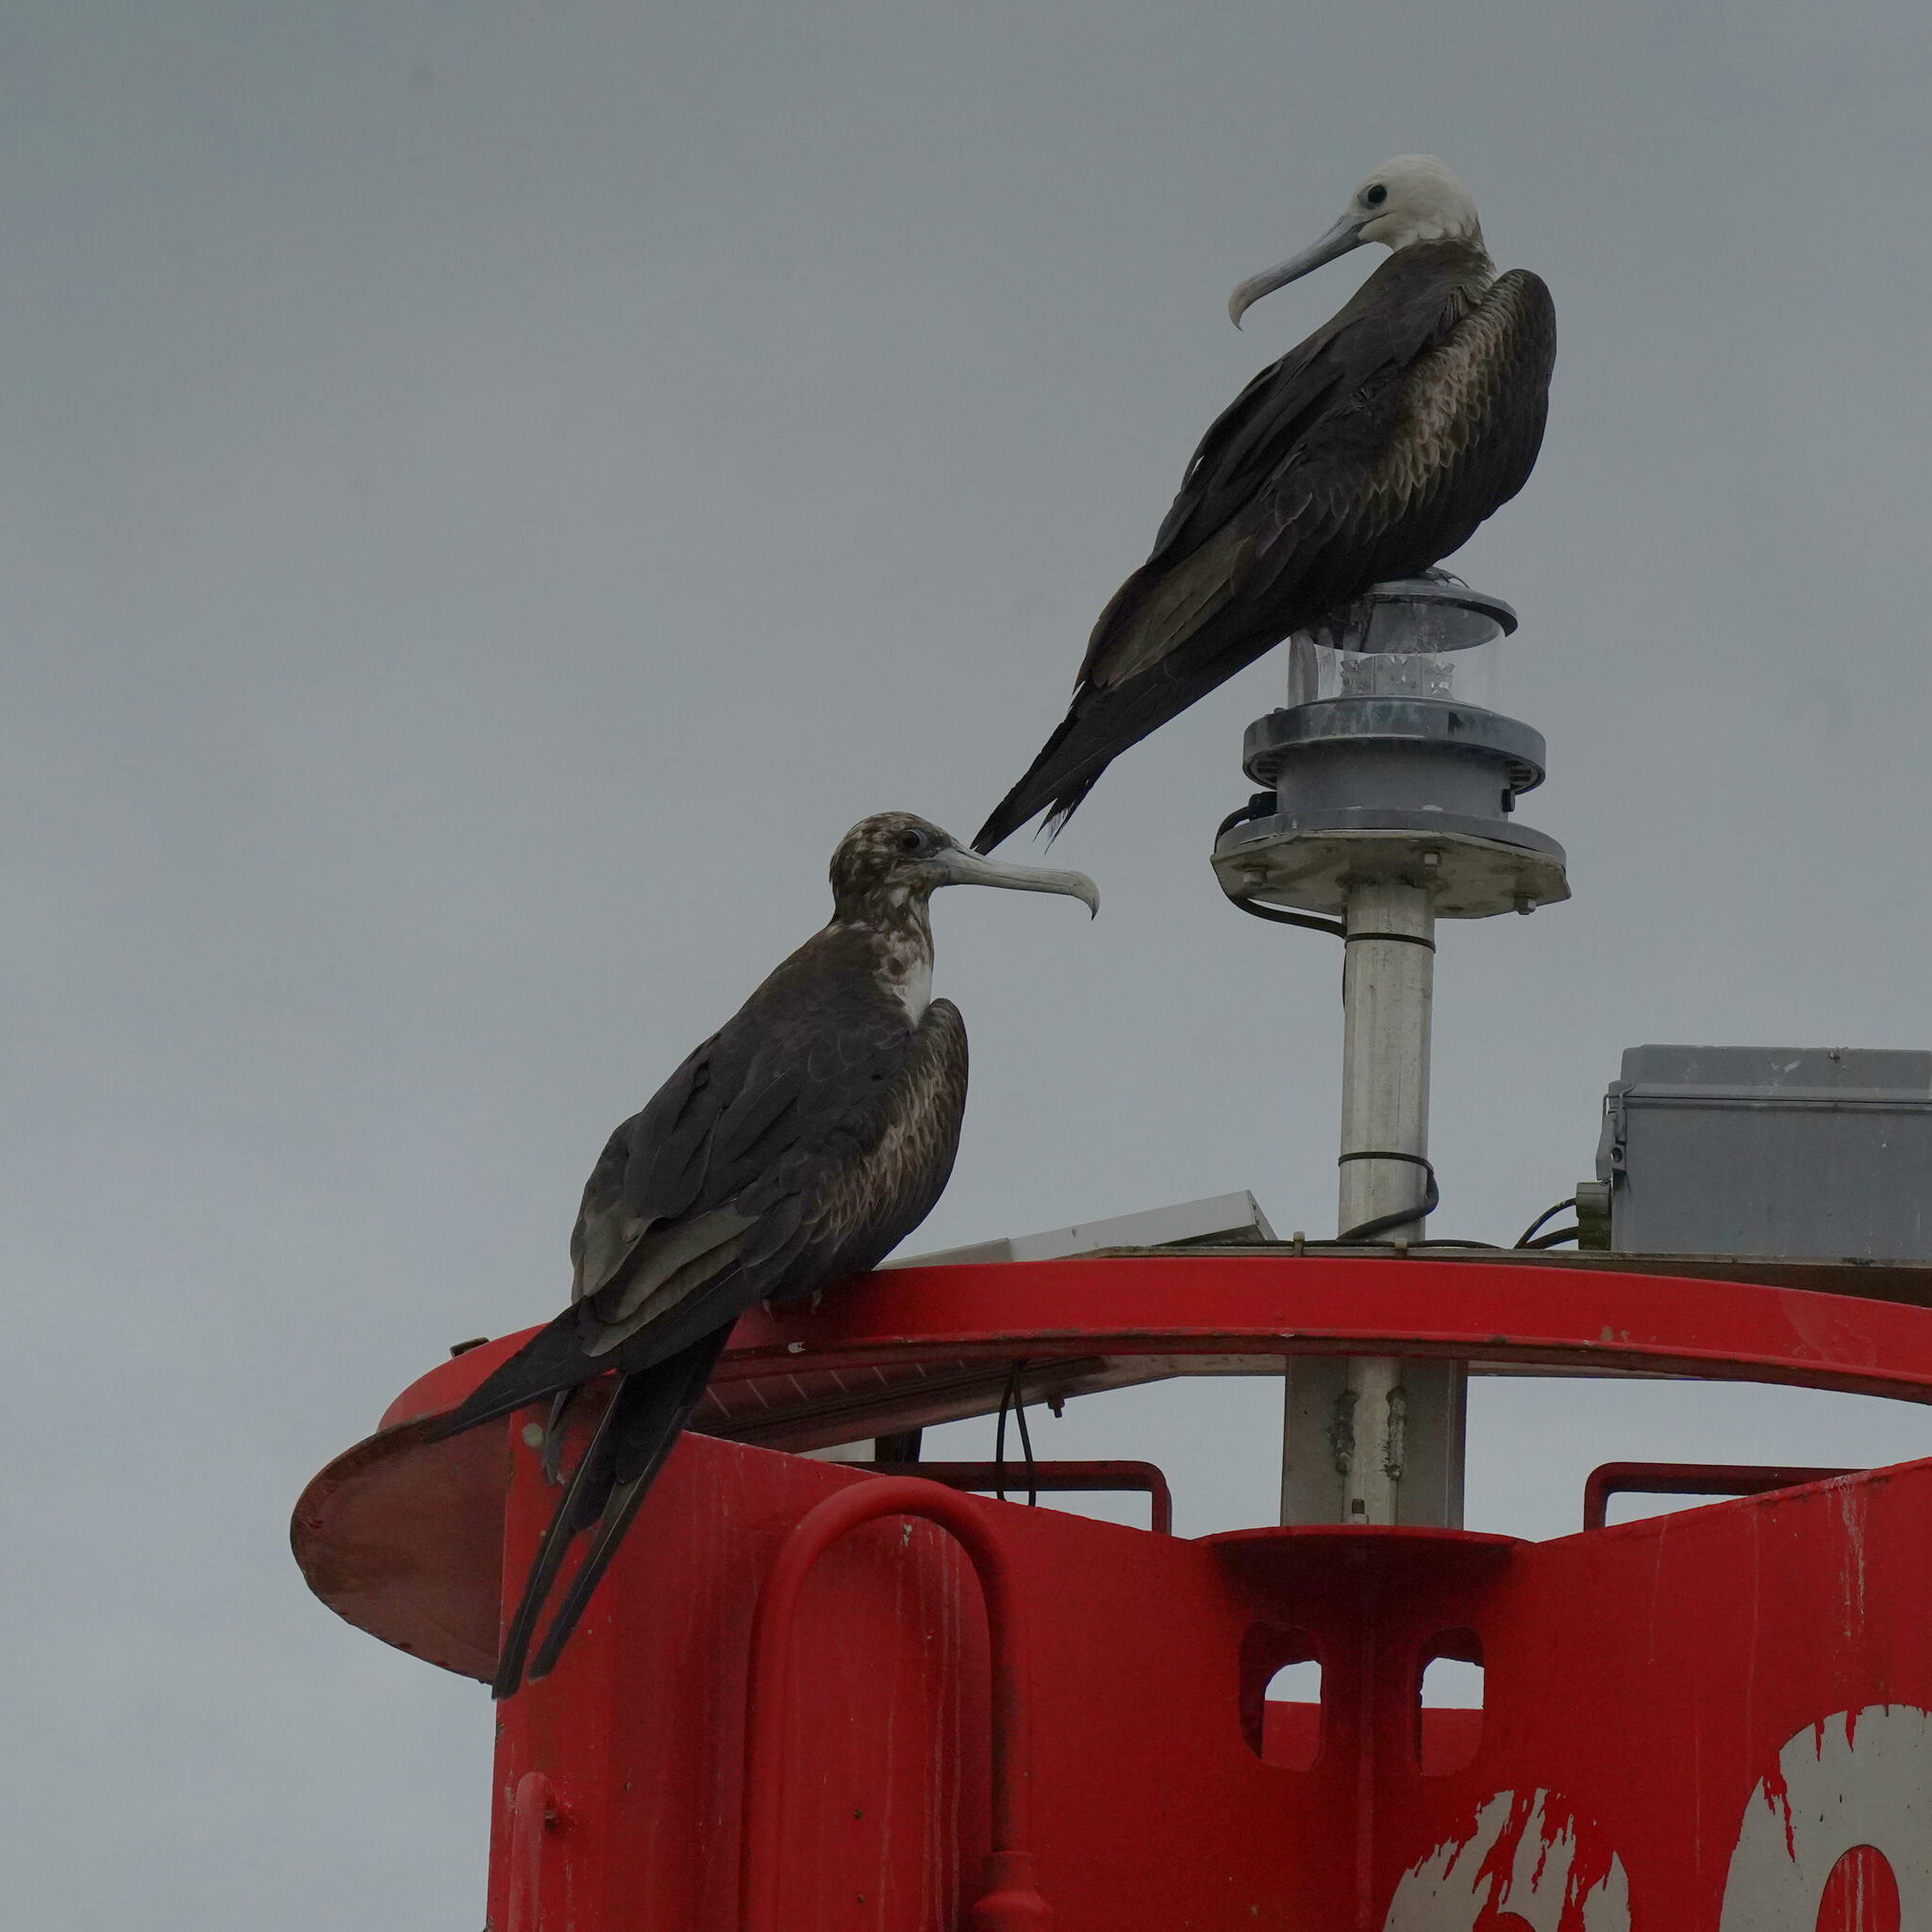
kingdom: Animalia
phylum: Chordata
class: Aves
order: Suliformes
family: Fregatidae
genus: Fregata
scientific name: Fregata magnificens
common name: Magnificent frigatebird
